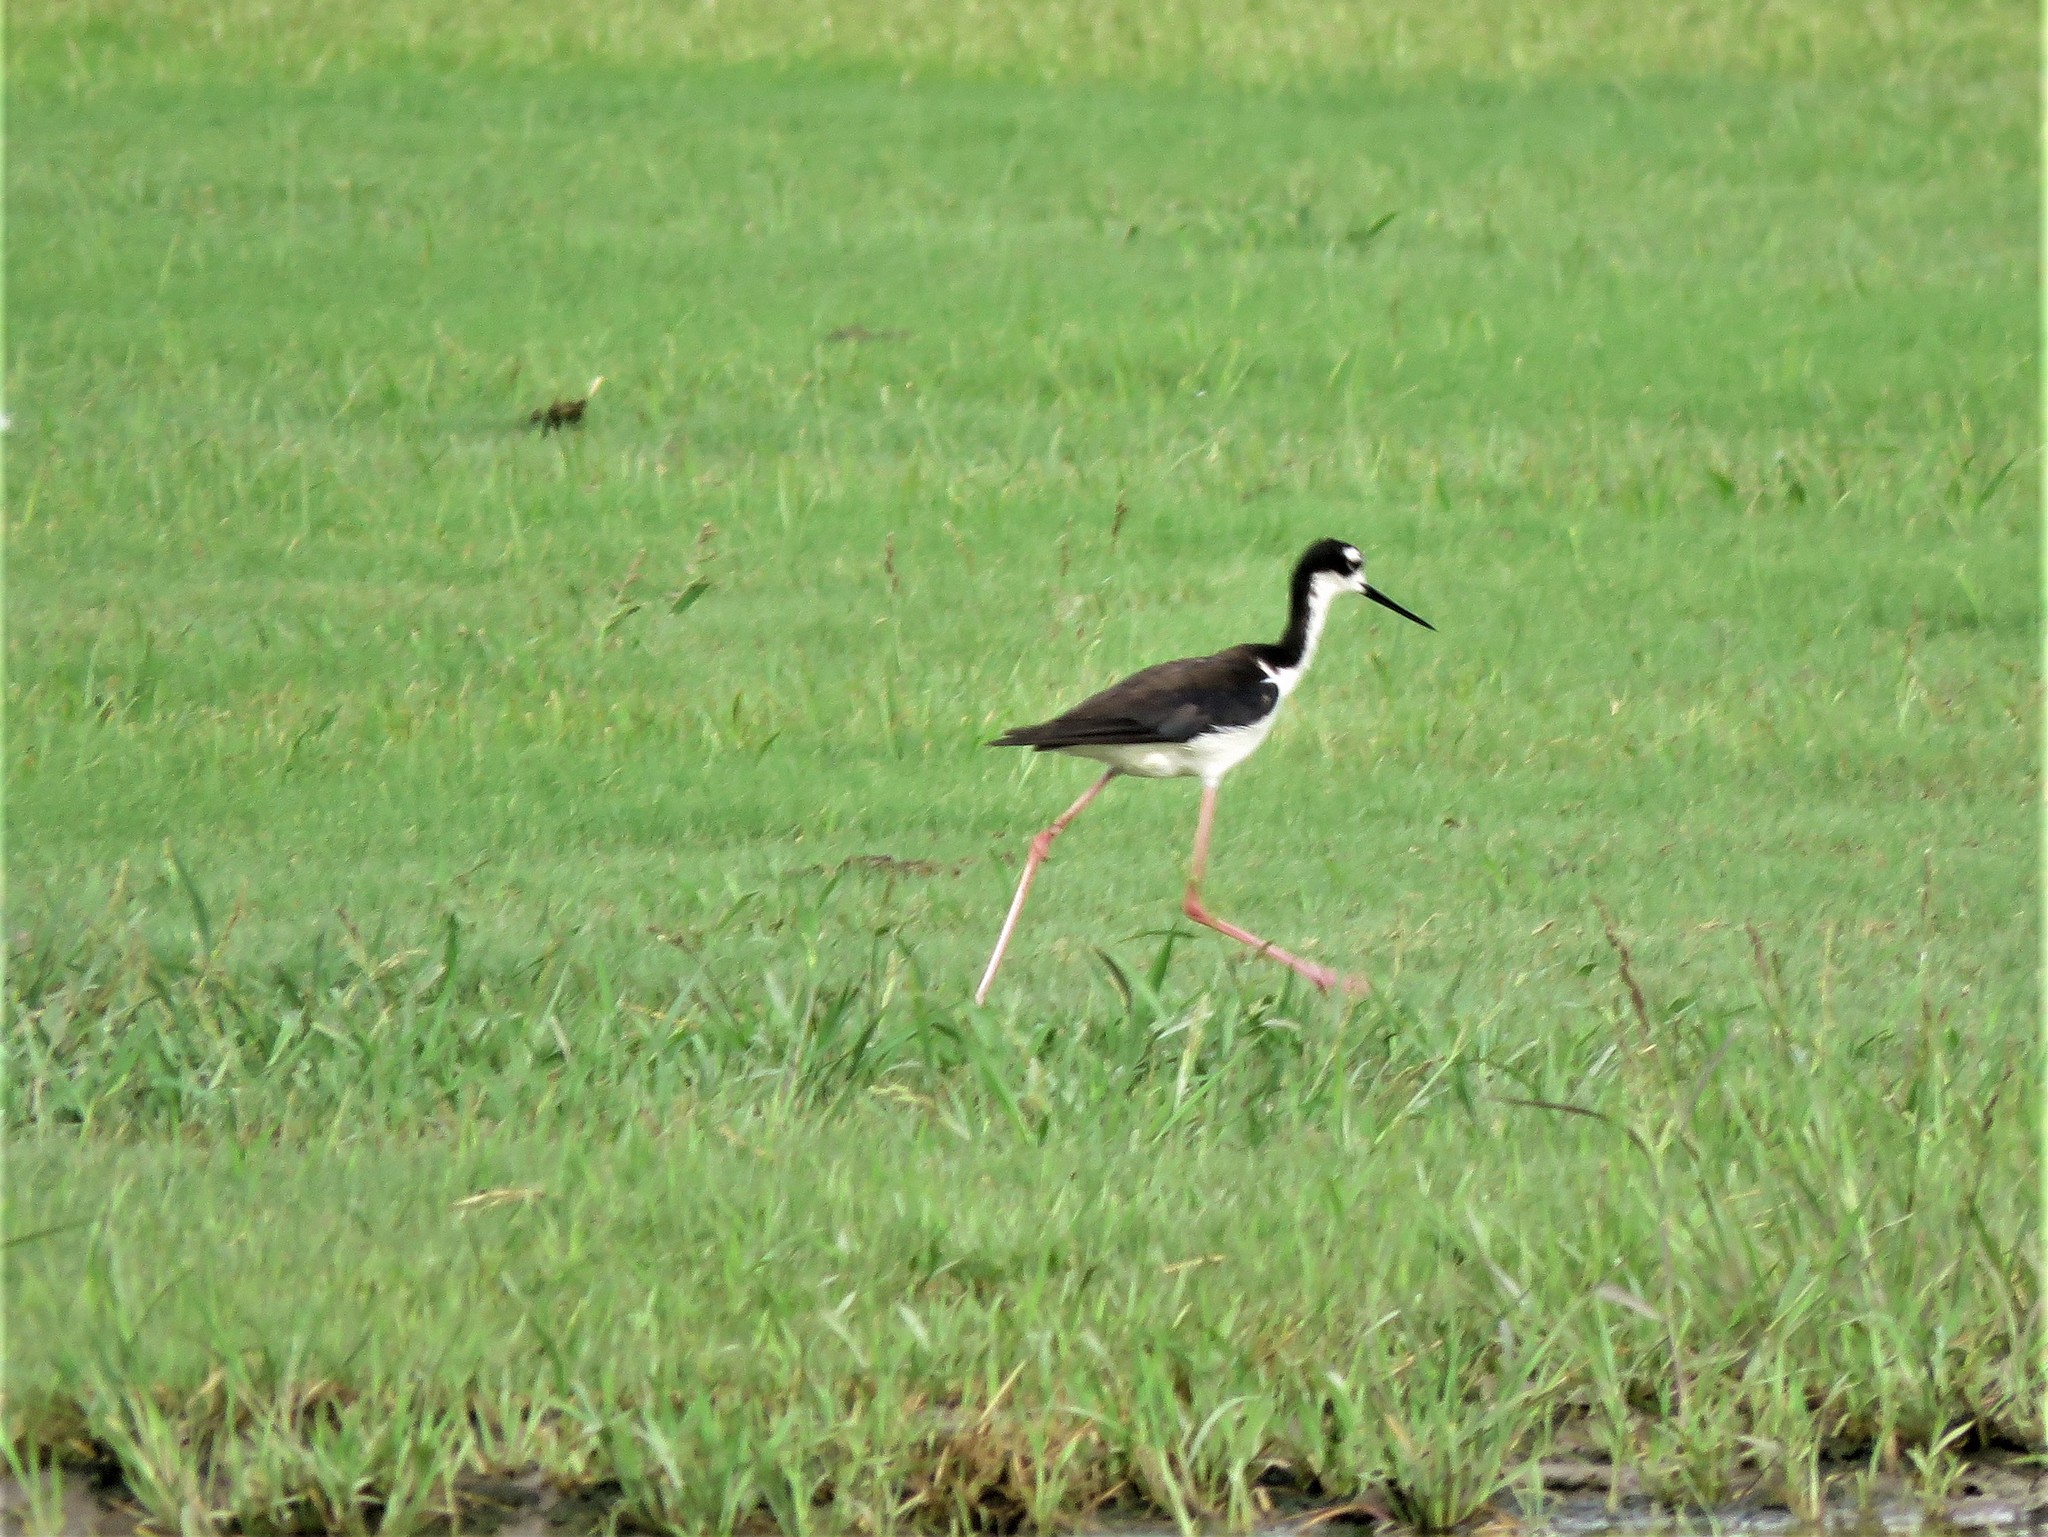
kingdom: Animalia
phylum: Chordata
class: Aves
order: Charadriiformes
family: Recurvirostridae
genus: Himantopus
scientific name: Himantopus mexicanus
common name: Black-necked stilt
